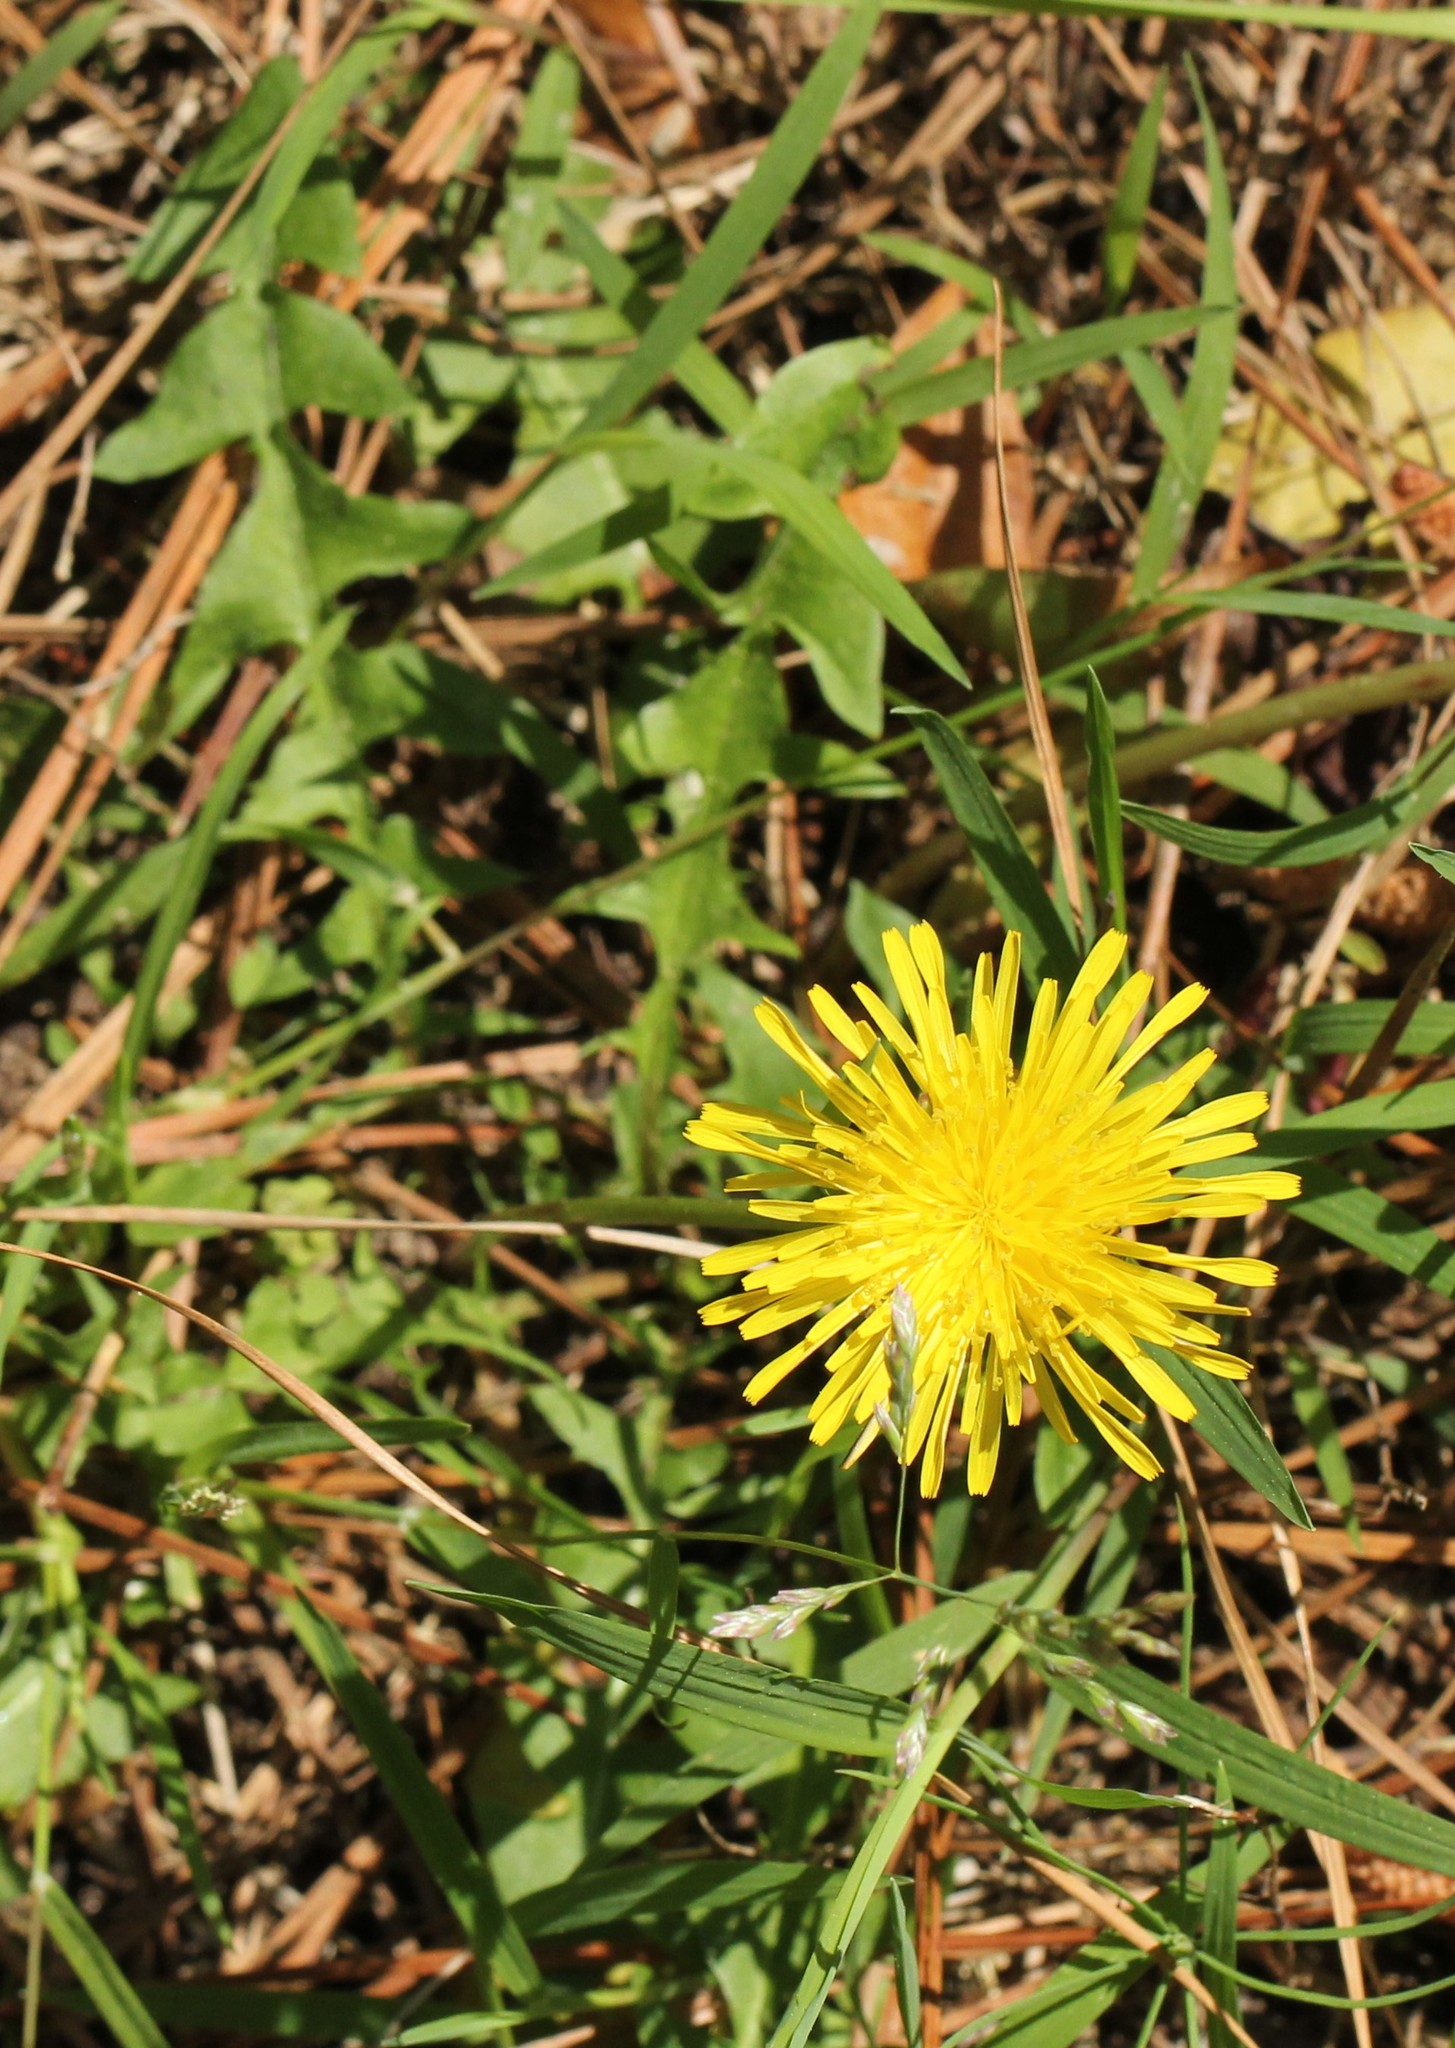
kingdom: Plantae
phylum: Tracheophyta
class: Magnoliopsida
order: Asterales
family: Asteraceae
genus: Taraxacum
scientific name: Taraxacum
